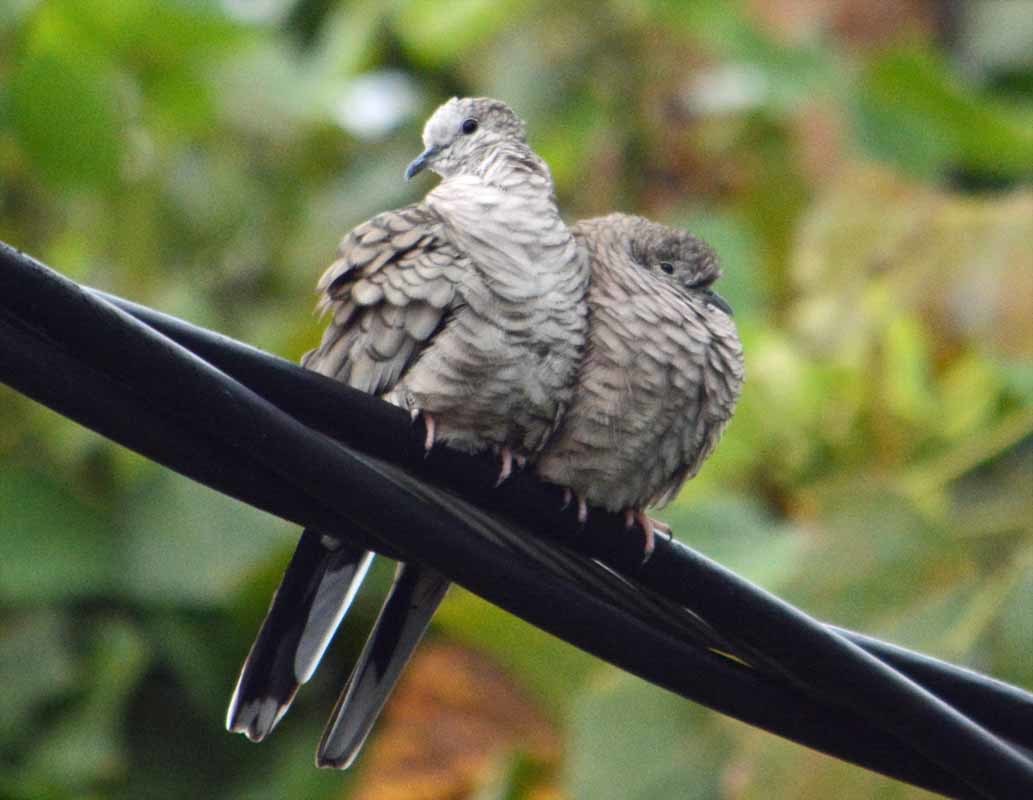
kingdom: Animalia
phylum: Chordata
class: Aves
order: Columbiformes
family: Columbidae
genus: Columbina
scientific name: Columbina inca
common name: Inca dove
